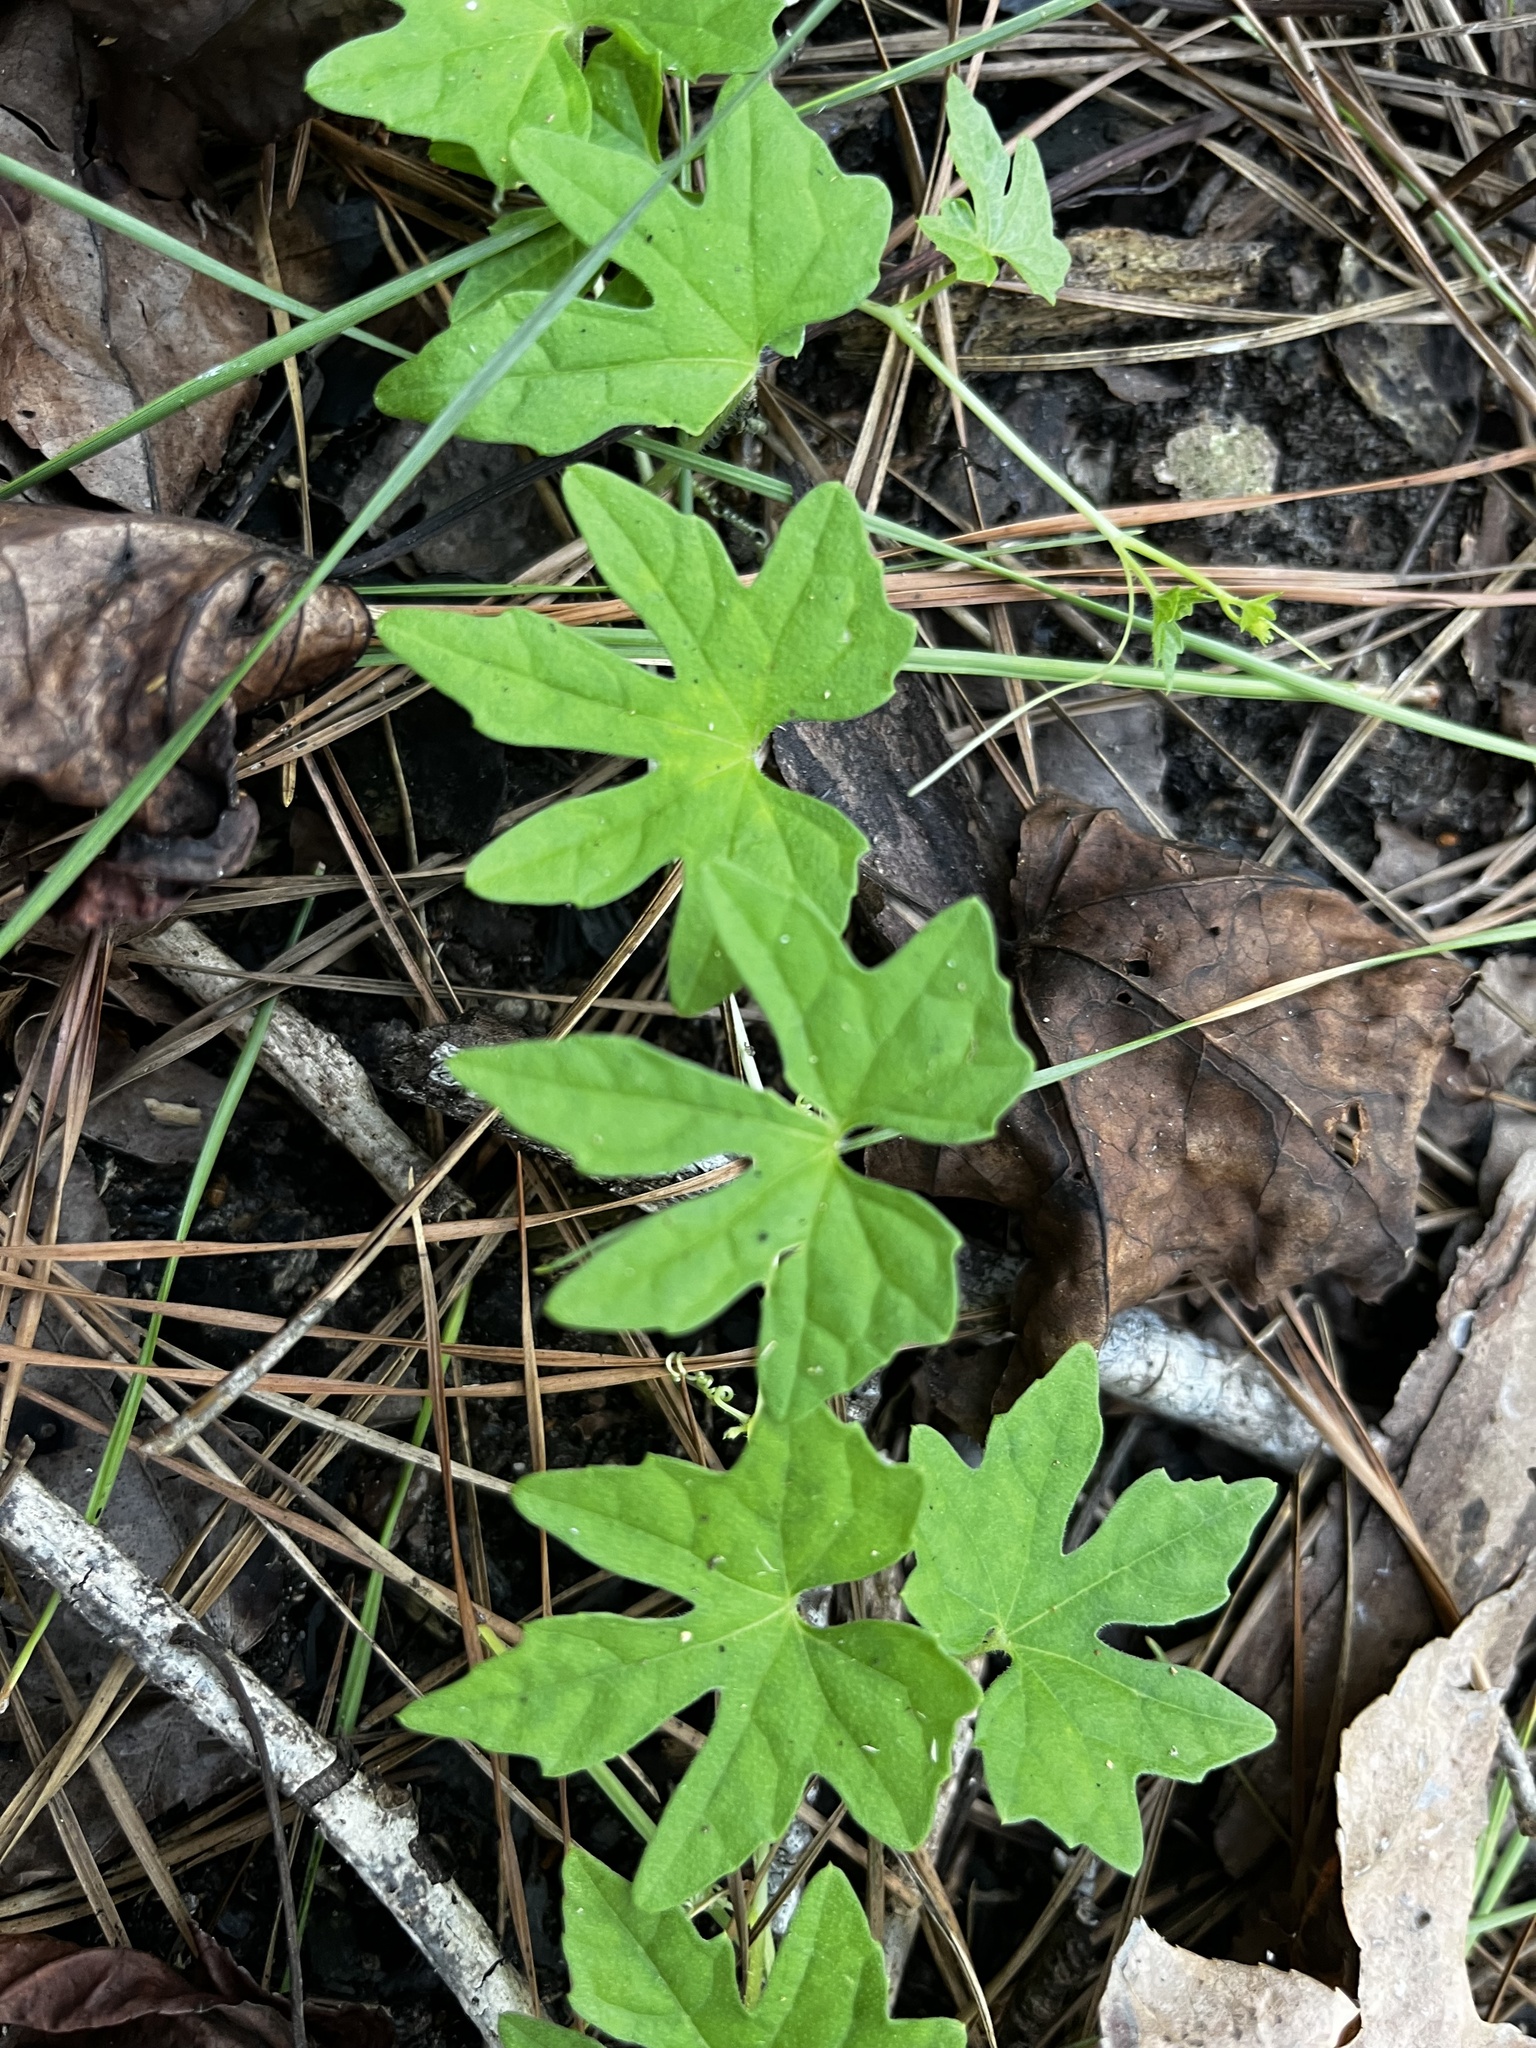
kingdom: Plantae
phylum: Tracheophyta
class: Magnoliopsida
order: Cucurbitales
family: Cucurbitaceae
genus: Melothria
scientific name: Melothria pendula
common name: Creeping-cucumber
